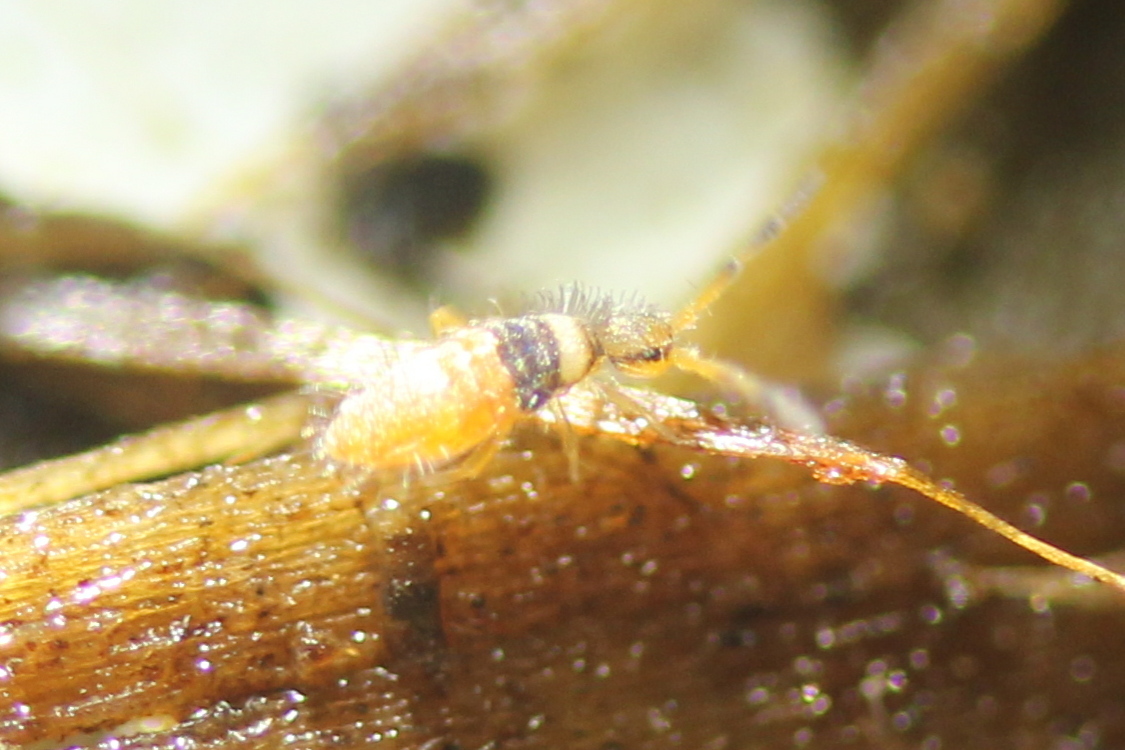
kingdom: Animalia
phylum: Arthropoda
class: Collembola
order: Entomobryomorpha
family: Entomobryidae
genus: Entomobrya
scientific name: Entomobrya atrocincta
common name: Springtail
